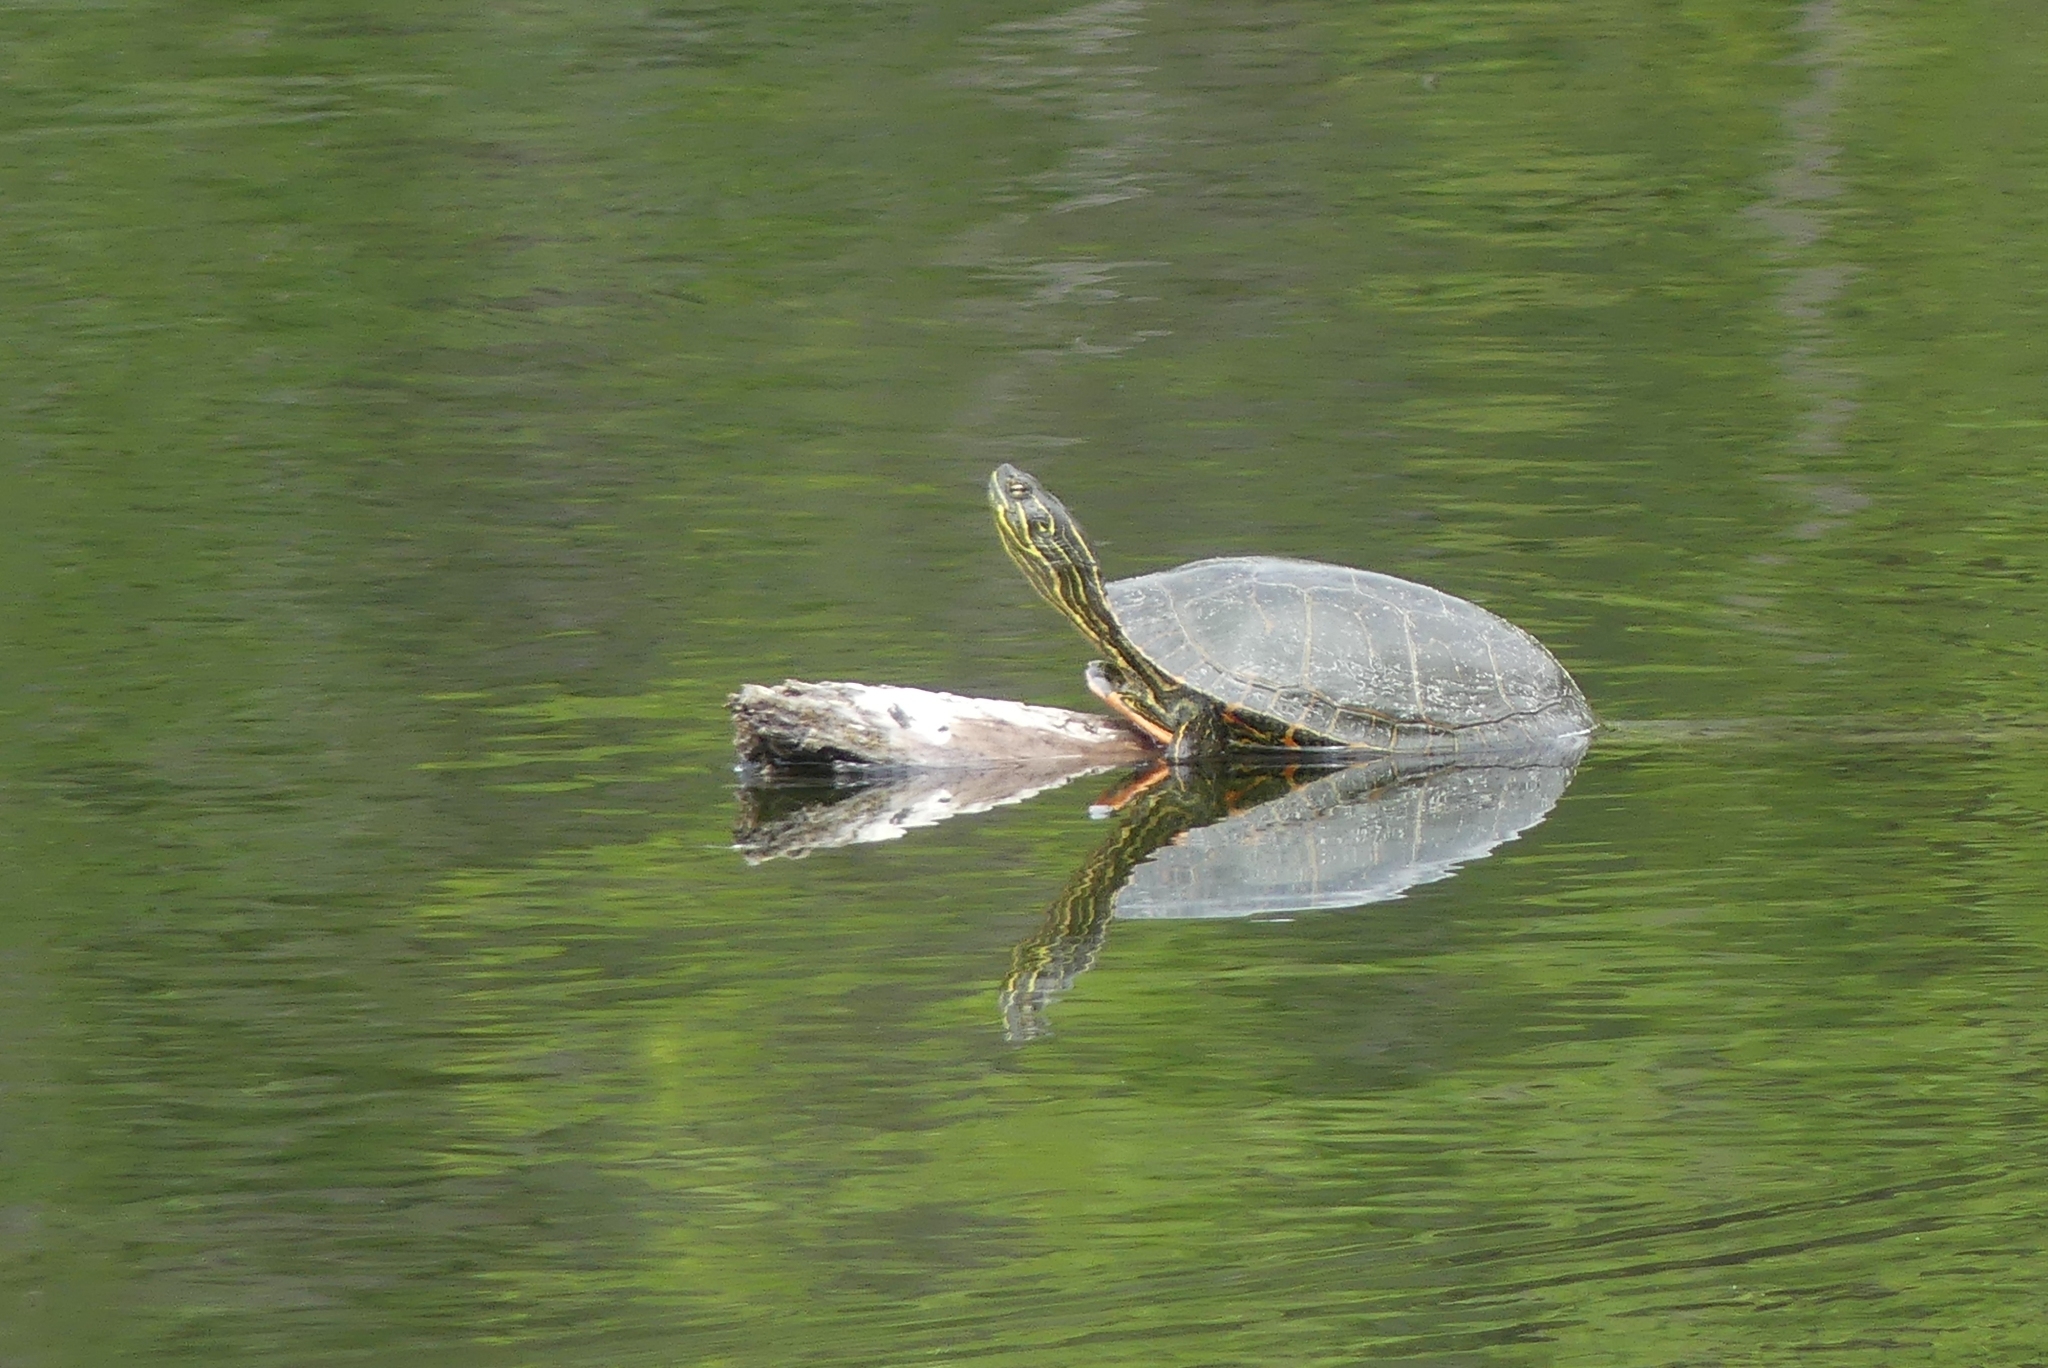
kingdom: Animalia
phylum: Chordata
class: Testudines
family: Emydidae
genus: Chrysemys
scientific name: Chrysemys picta
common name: Painted turtle
